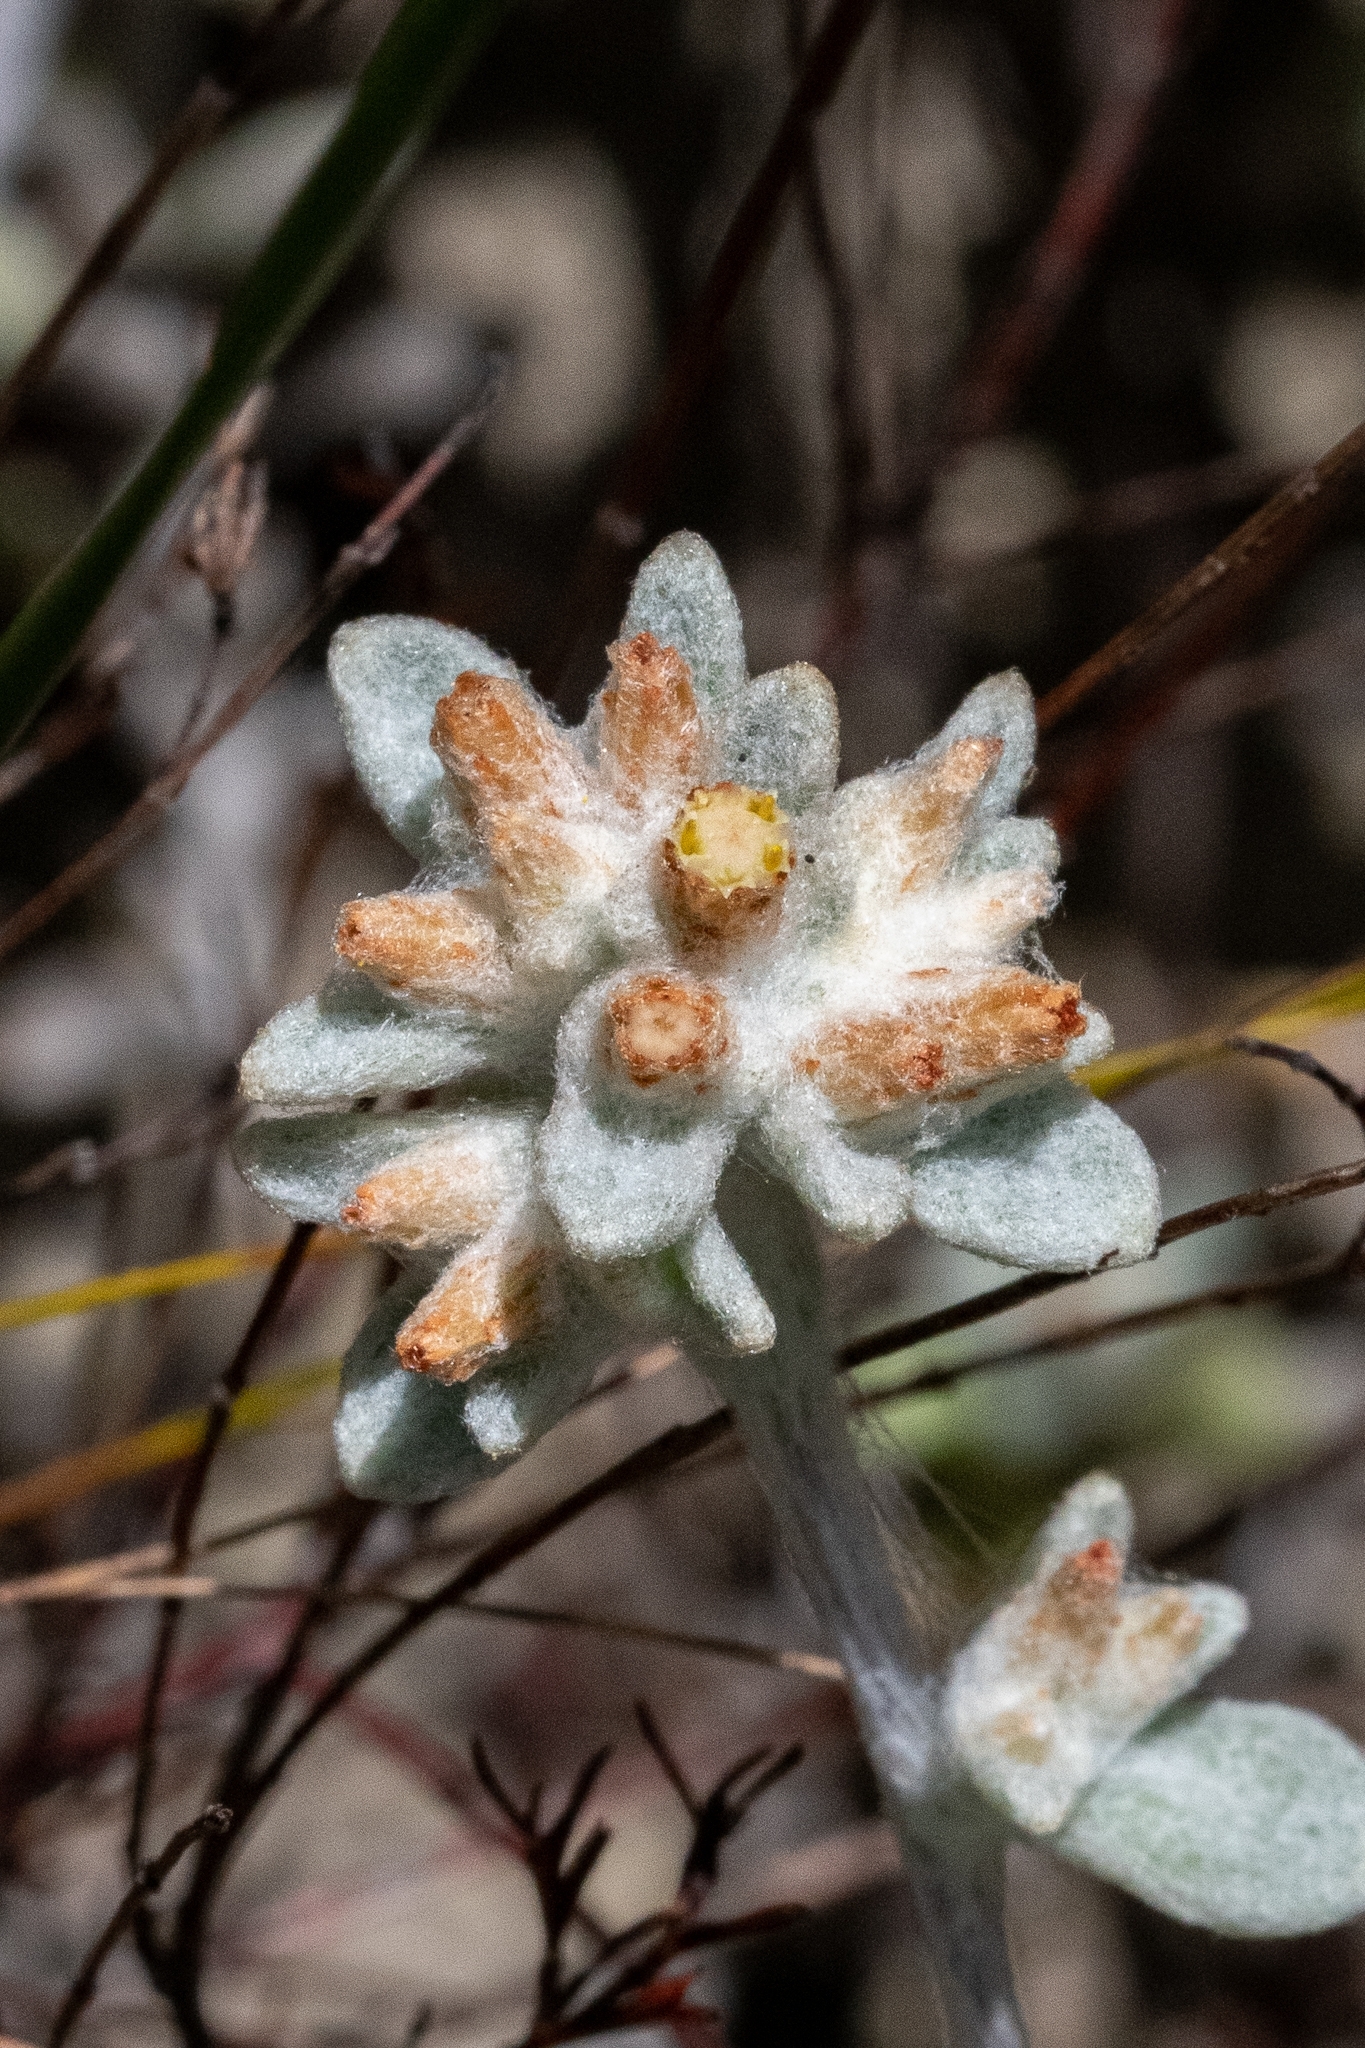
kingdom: Plantae
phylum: Tracheophyta
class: Magnoliopsida
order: Asterales
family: Asteraceae
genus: Helichrysum
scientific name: Helichrysum tinctum
